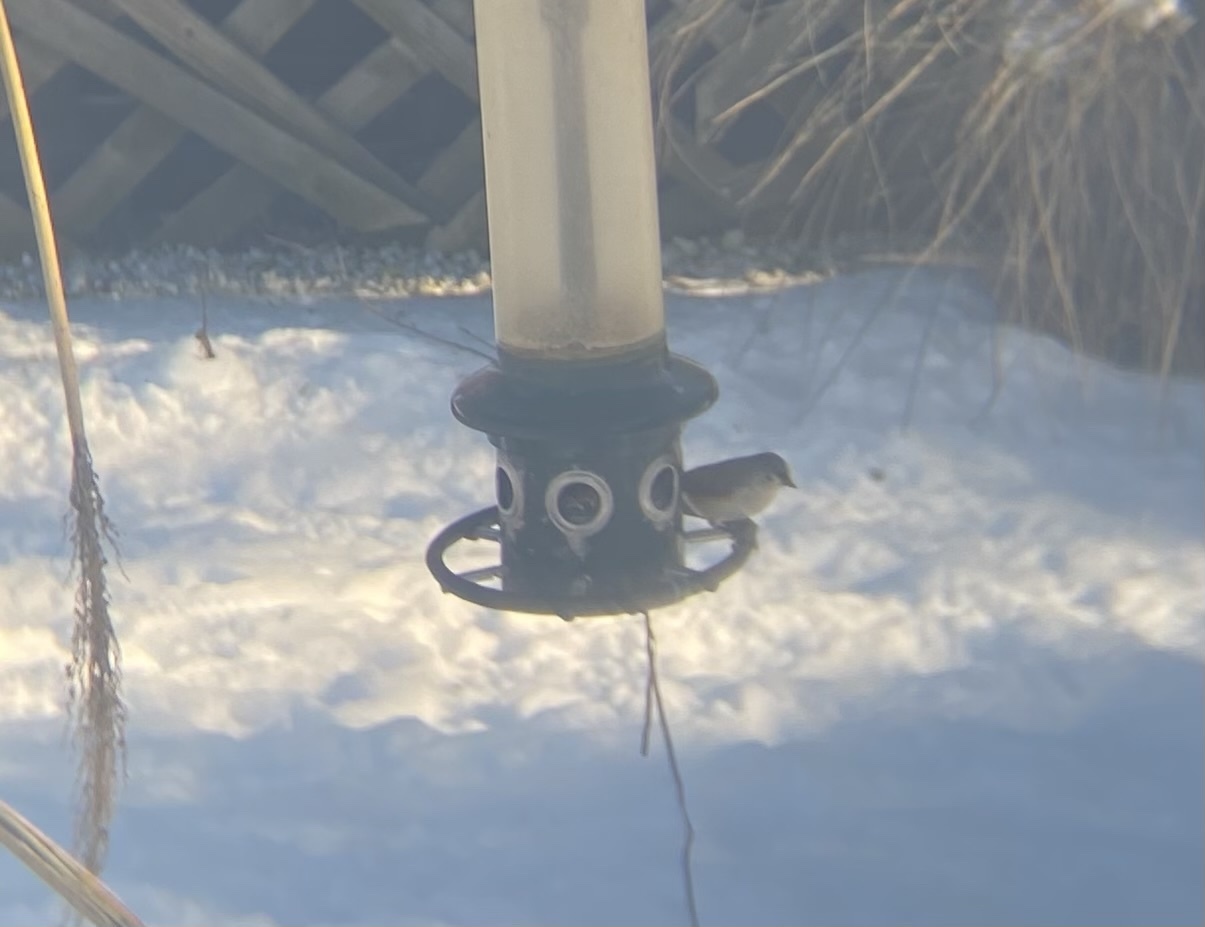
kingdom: Animalia
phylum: Chordata
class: Aves
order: Passeriformes
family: Paridae
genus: Baeolophus
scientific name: Baeolophus bicolor
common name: Tufted titmouse
